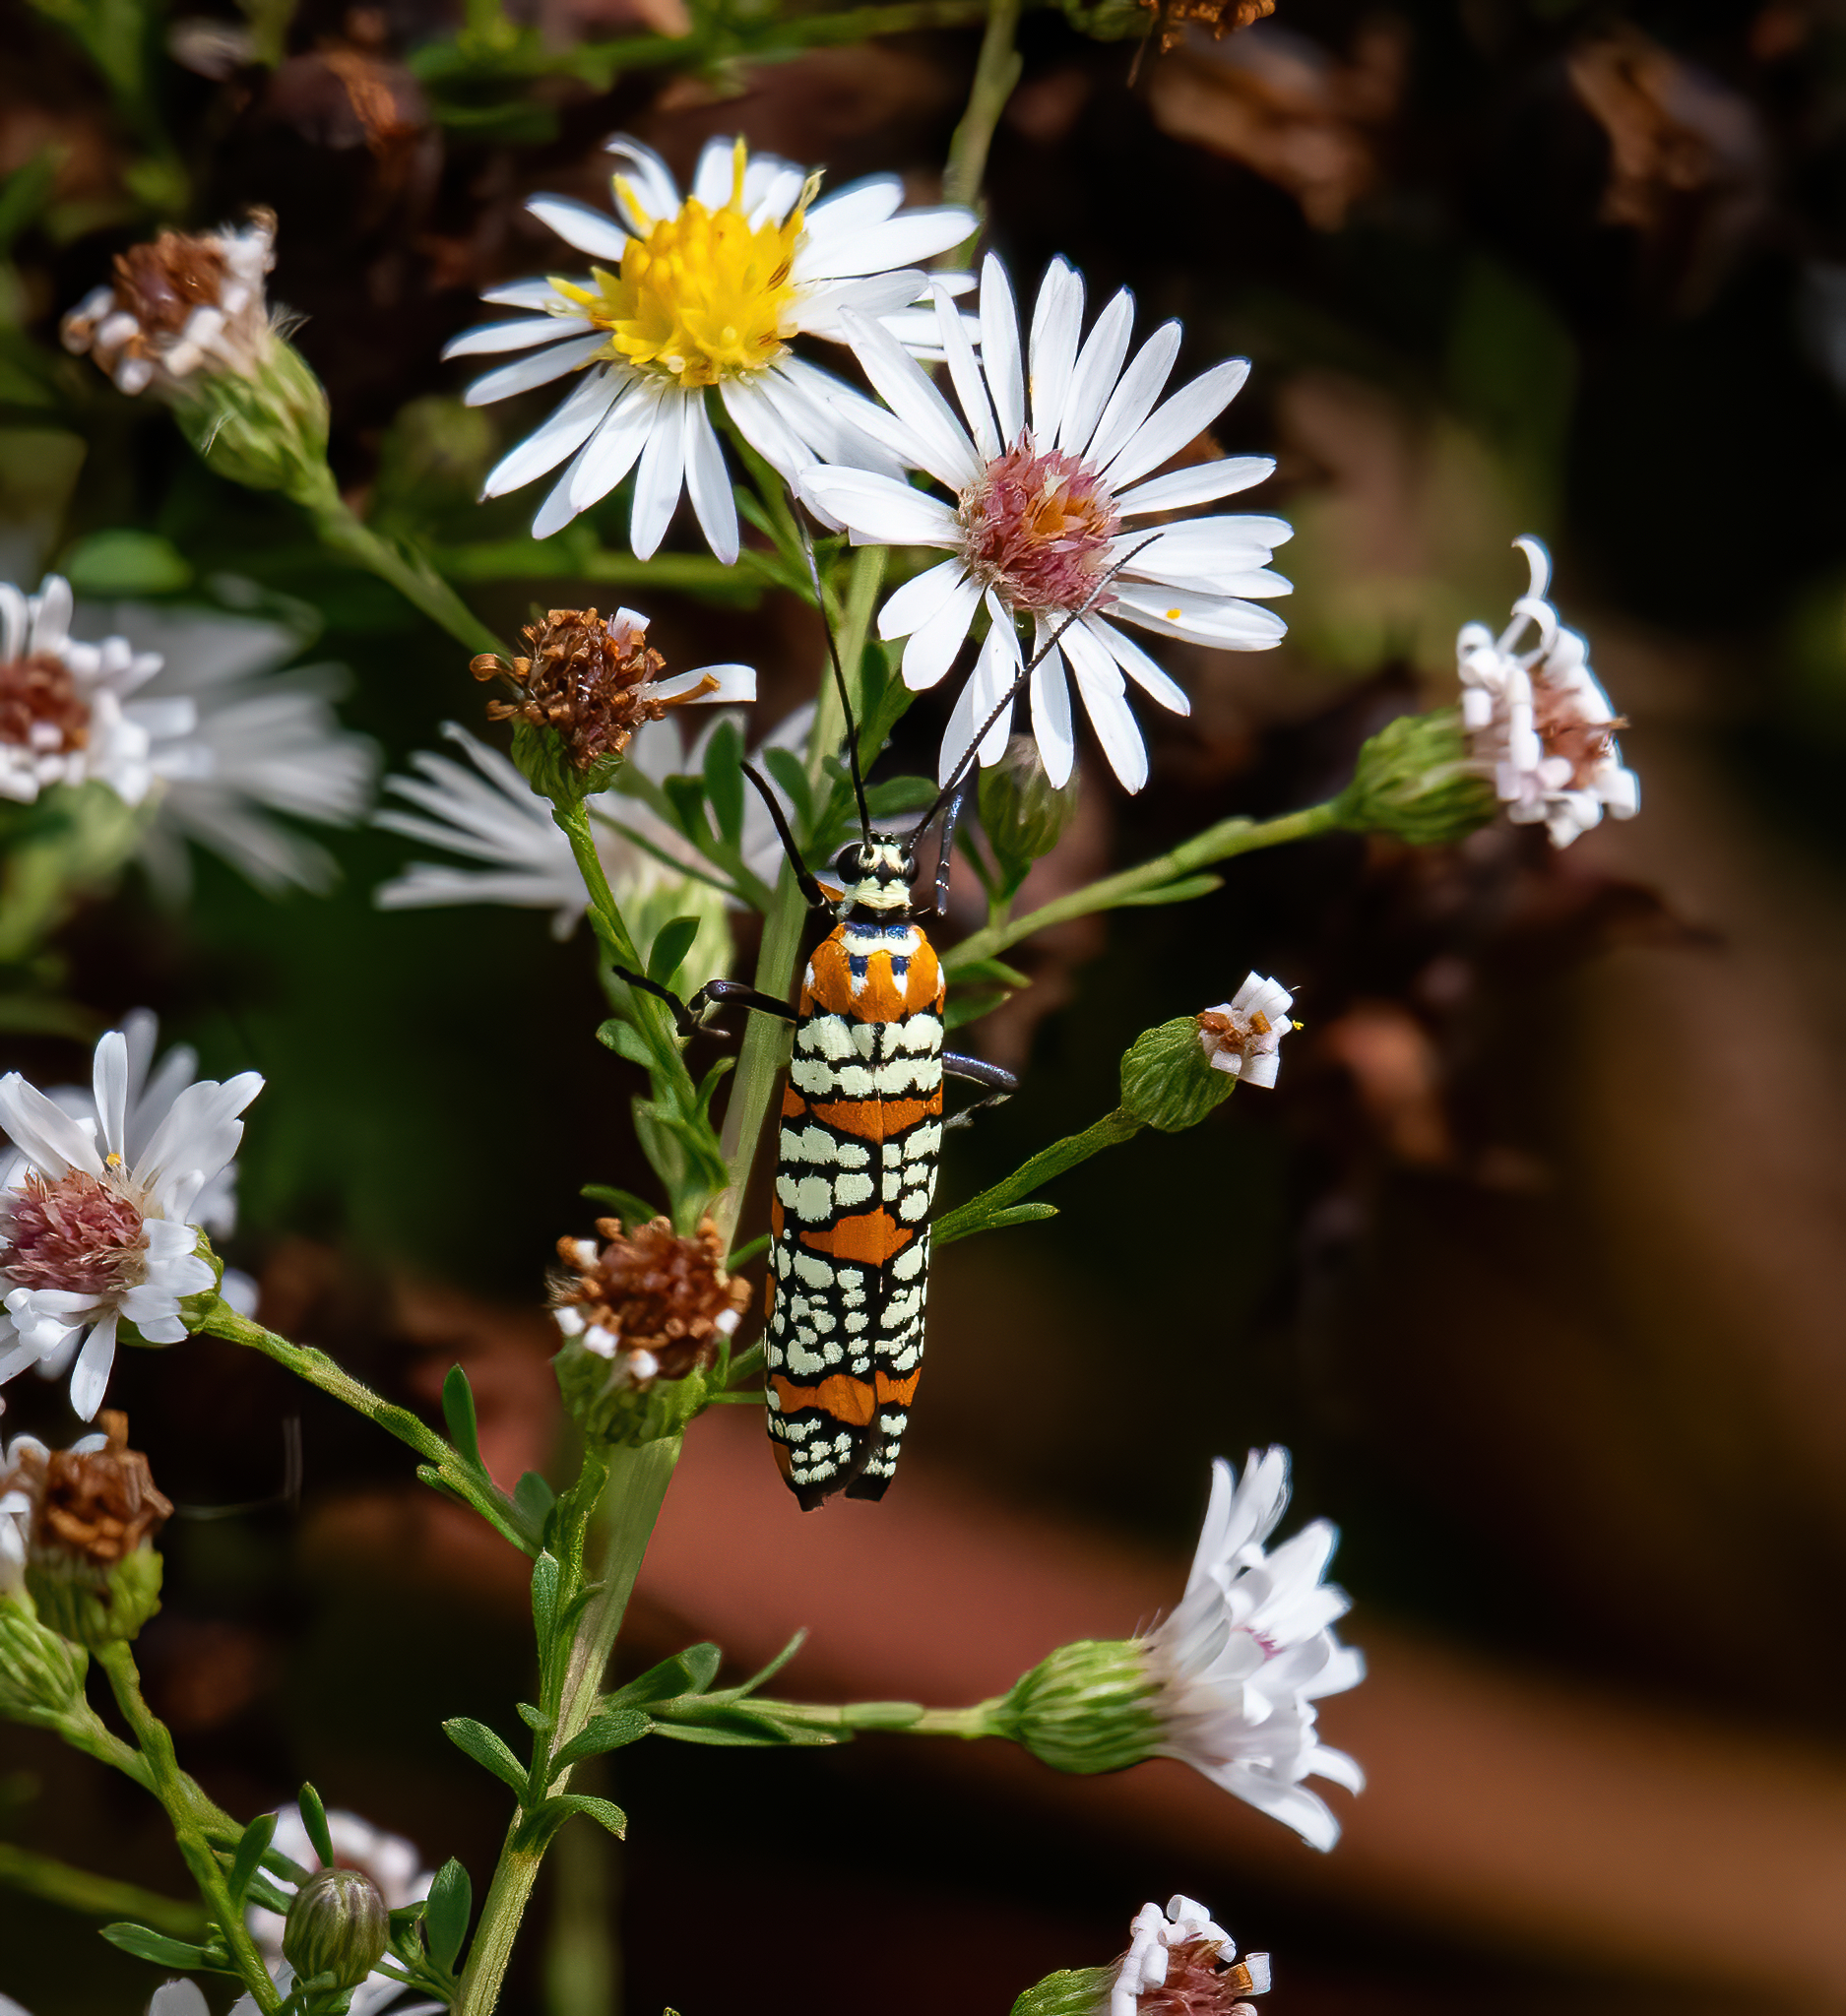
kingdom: Animalia
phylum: Arthropoda
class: Insecta
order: Lepidoptera
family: Attevidae
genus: Atteva
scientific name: Atteva punctella
